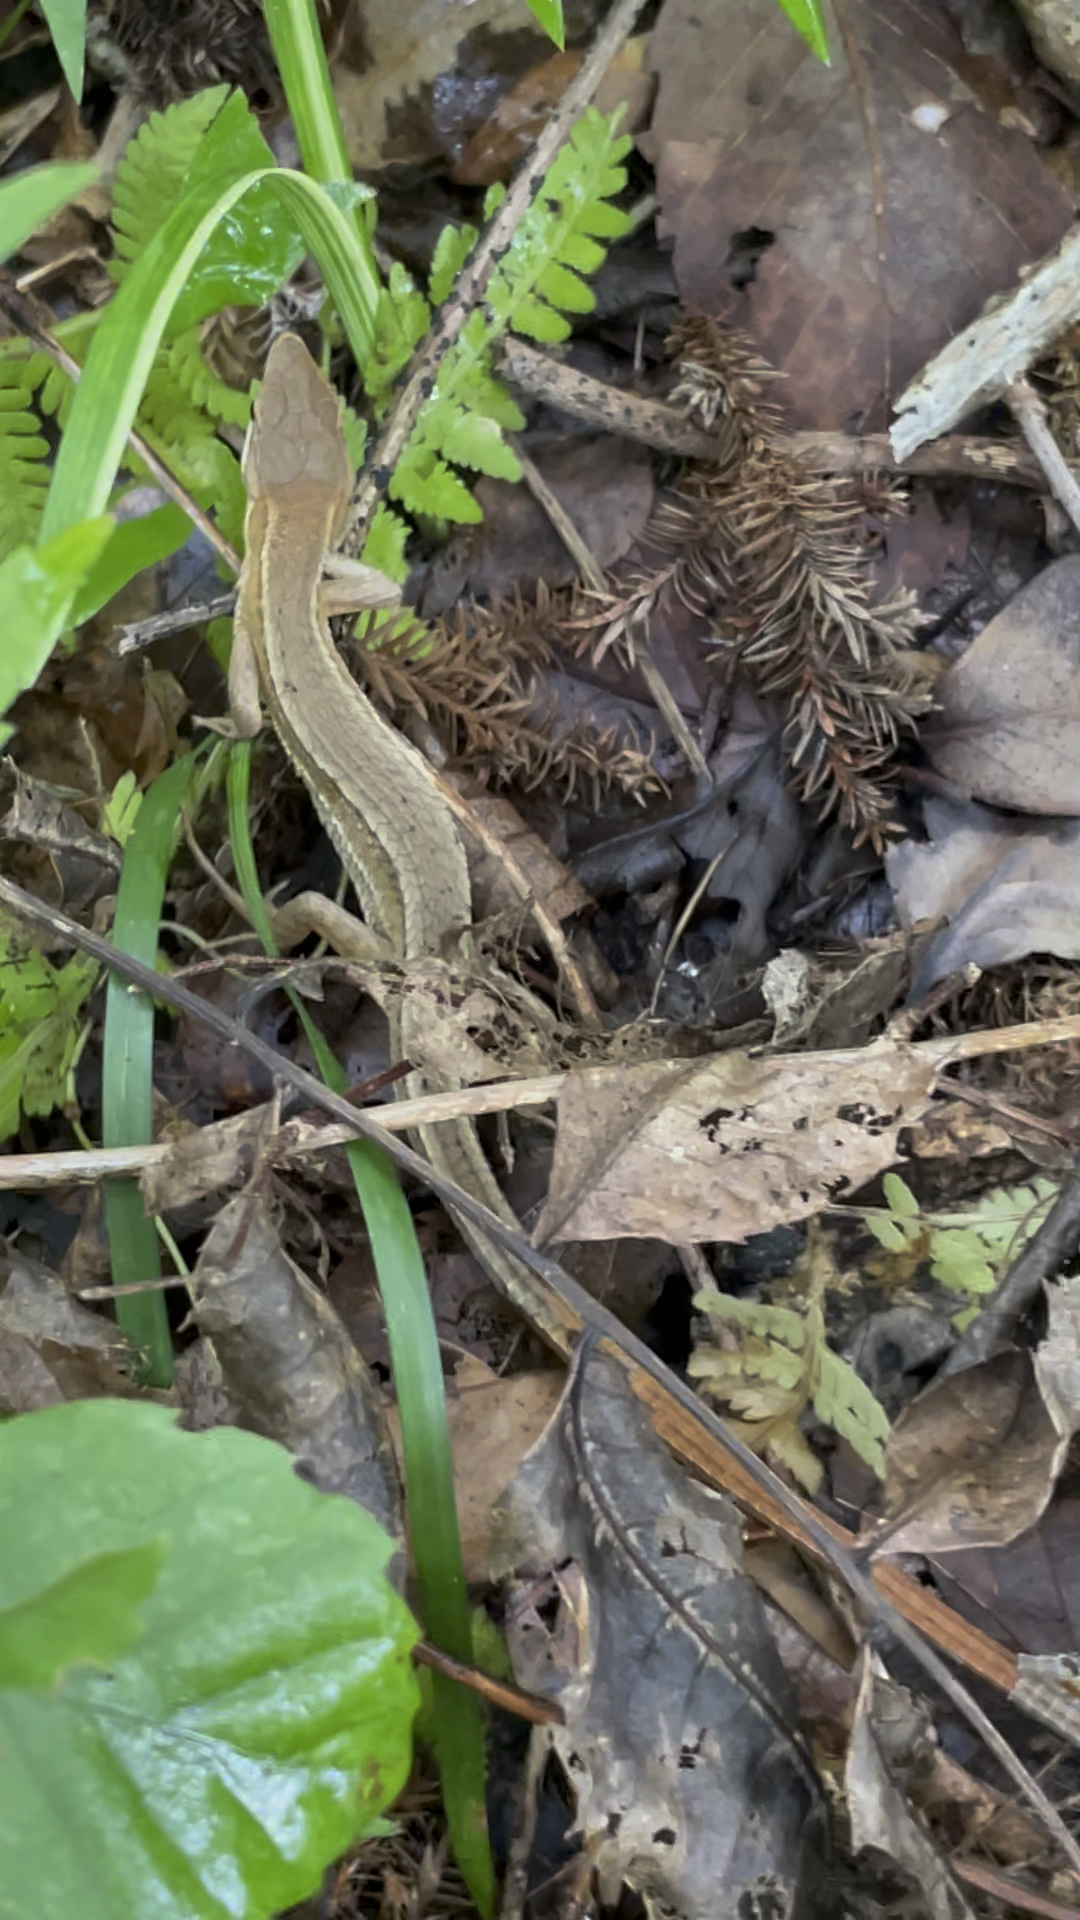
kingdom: Animalia
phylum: Chordata
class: Squamata
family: Lacertidae
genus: Takydromus
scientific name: Takydromus tachydromoides
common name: Japanese grass lizard
